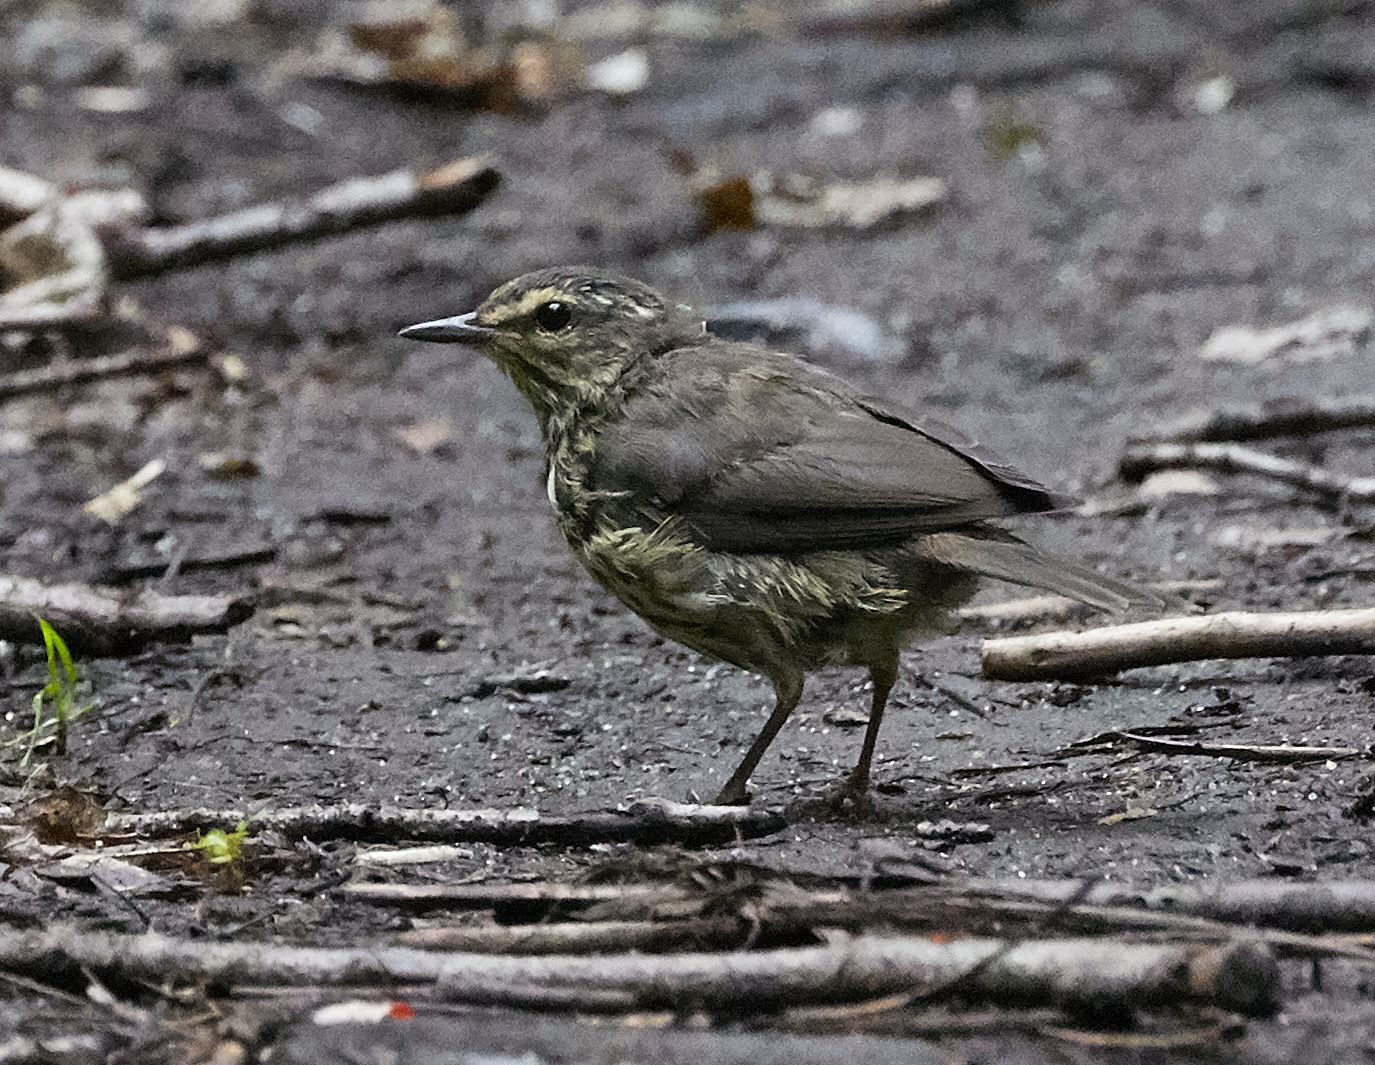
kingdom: Animalia
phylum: Chordata
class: Aves
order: Passeriformes
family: Parulidae
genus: Parkesia
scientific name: Parkesia noveboracensis
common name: Northern waterthrush
